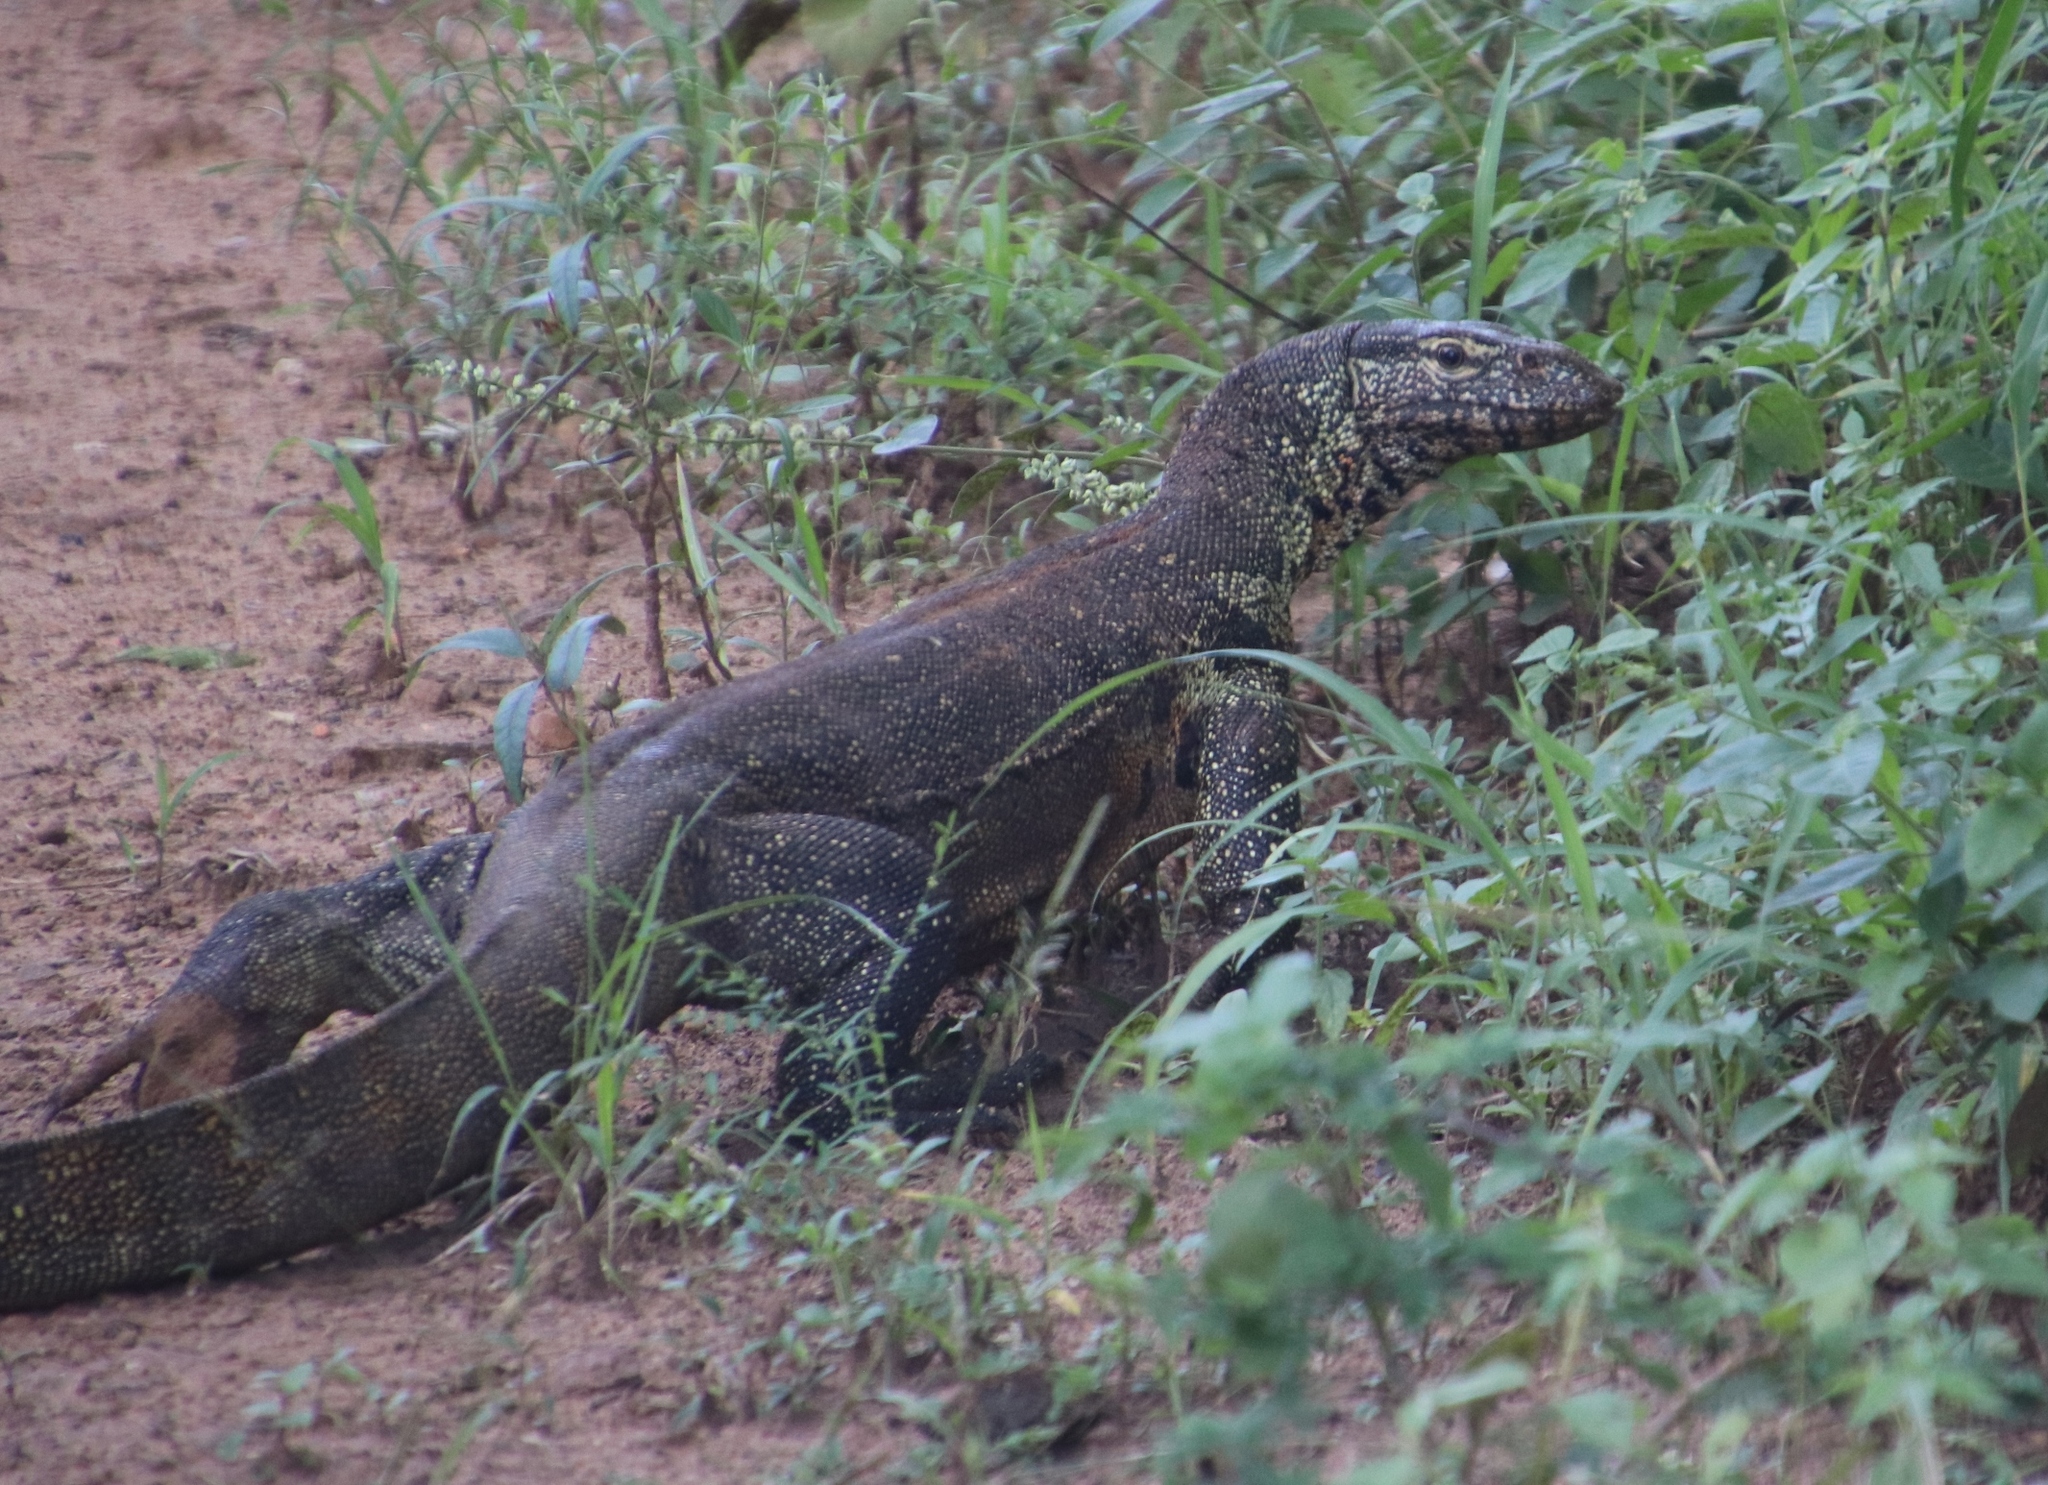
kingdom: Animalia
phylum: Chordata
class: Squamata
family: Varanidae
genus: Varanus
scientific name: Varanus niloticus
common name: Nile monitor
